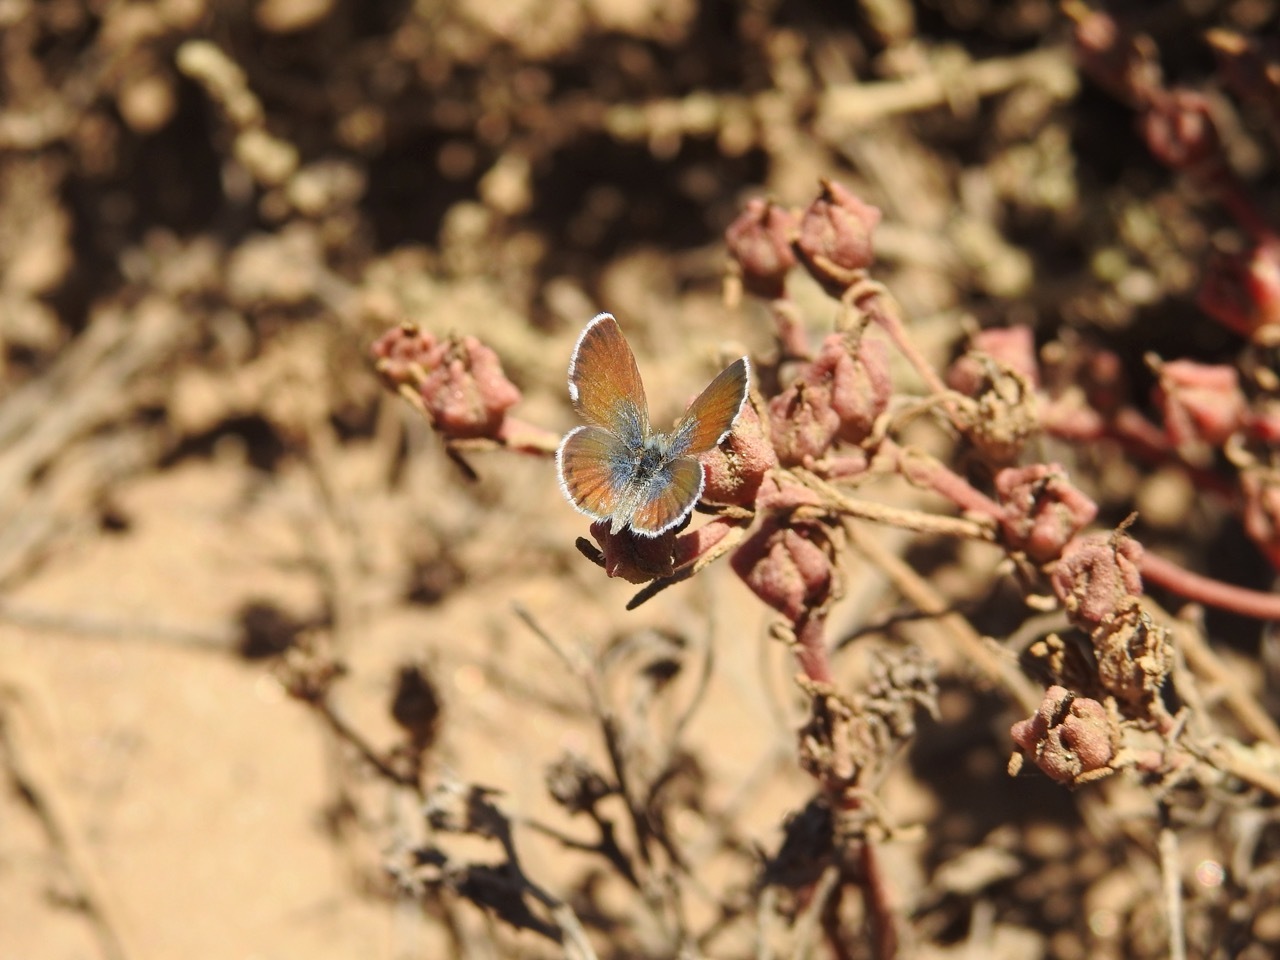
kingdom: Animalia
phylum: Arthropoda
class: Insecta
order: Lepidoptera
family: Lycaenidae
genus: Brephidium
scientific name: Brephidium exilis
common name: Pygmy blue
